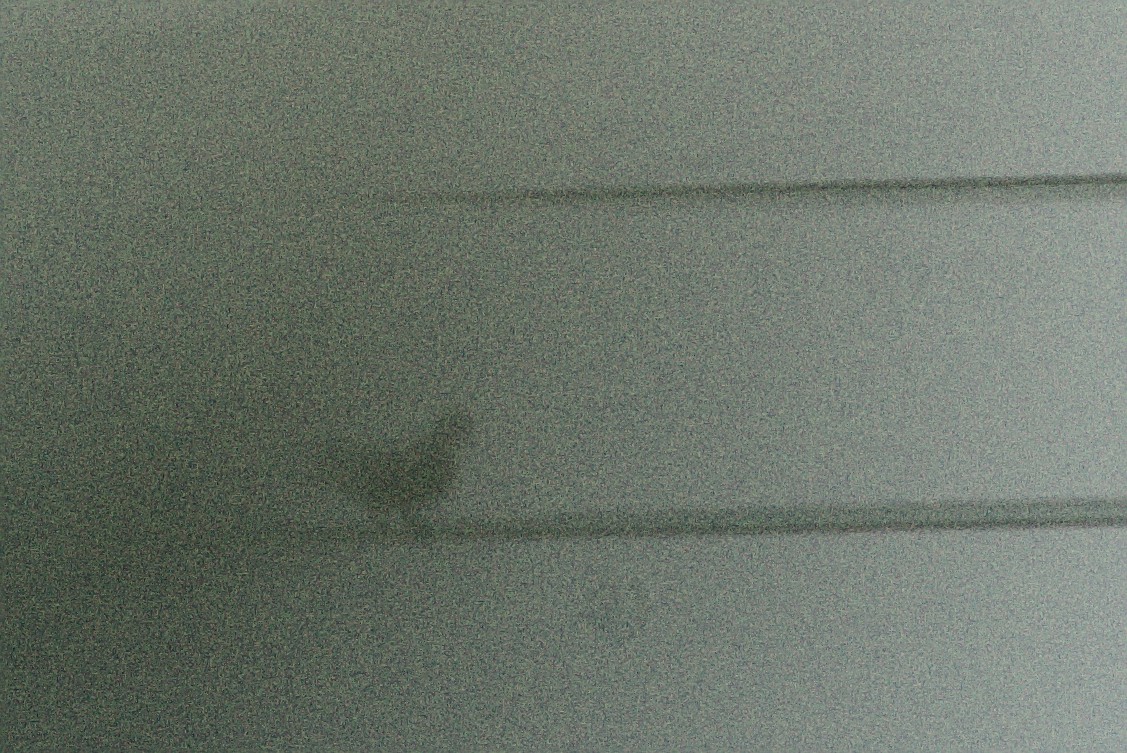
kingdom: Animalia
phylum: Chordata
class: Aves
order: Columbiformes
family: Columbidae
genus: Columba
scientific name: Columba livia
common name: Rock pigeon
